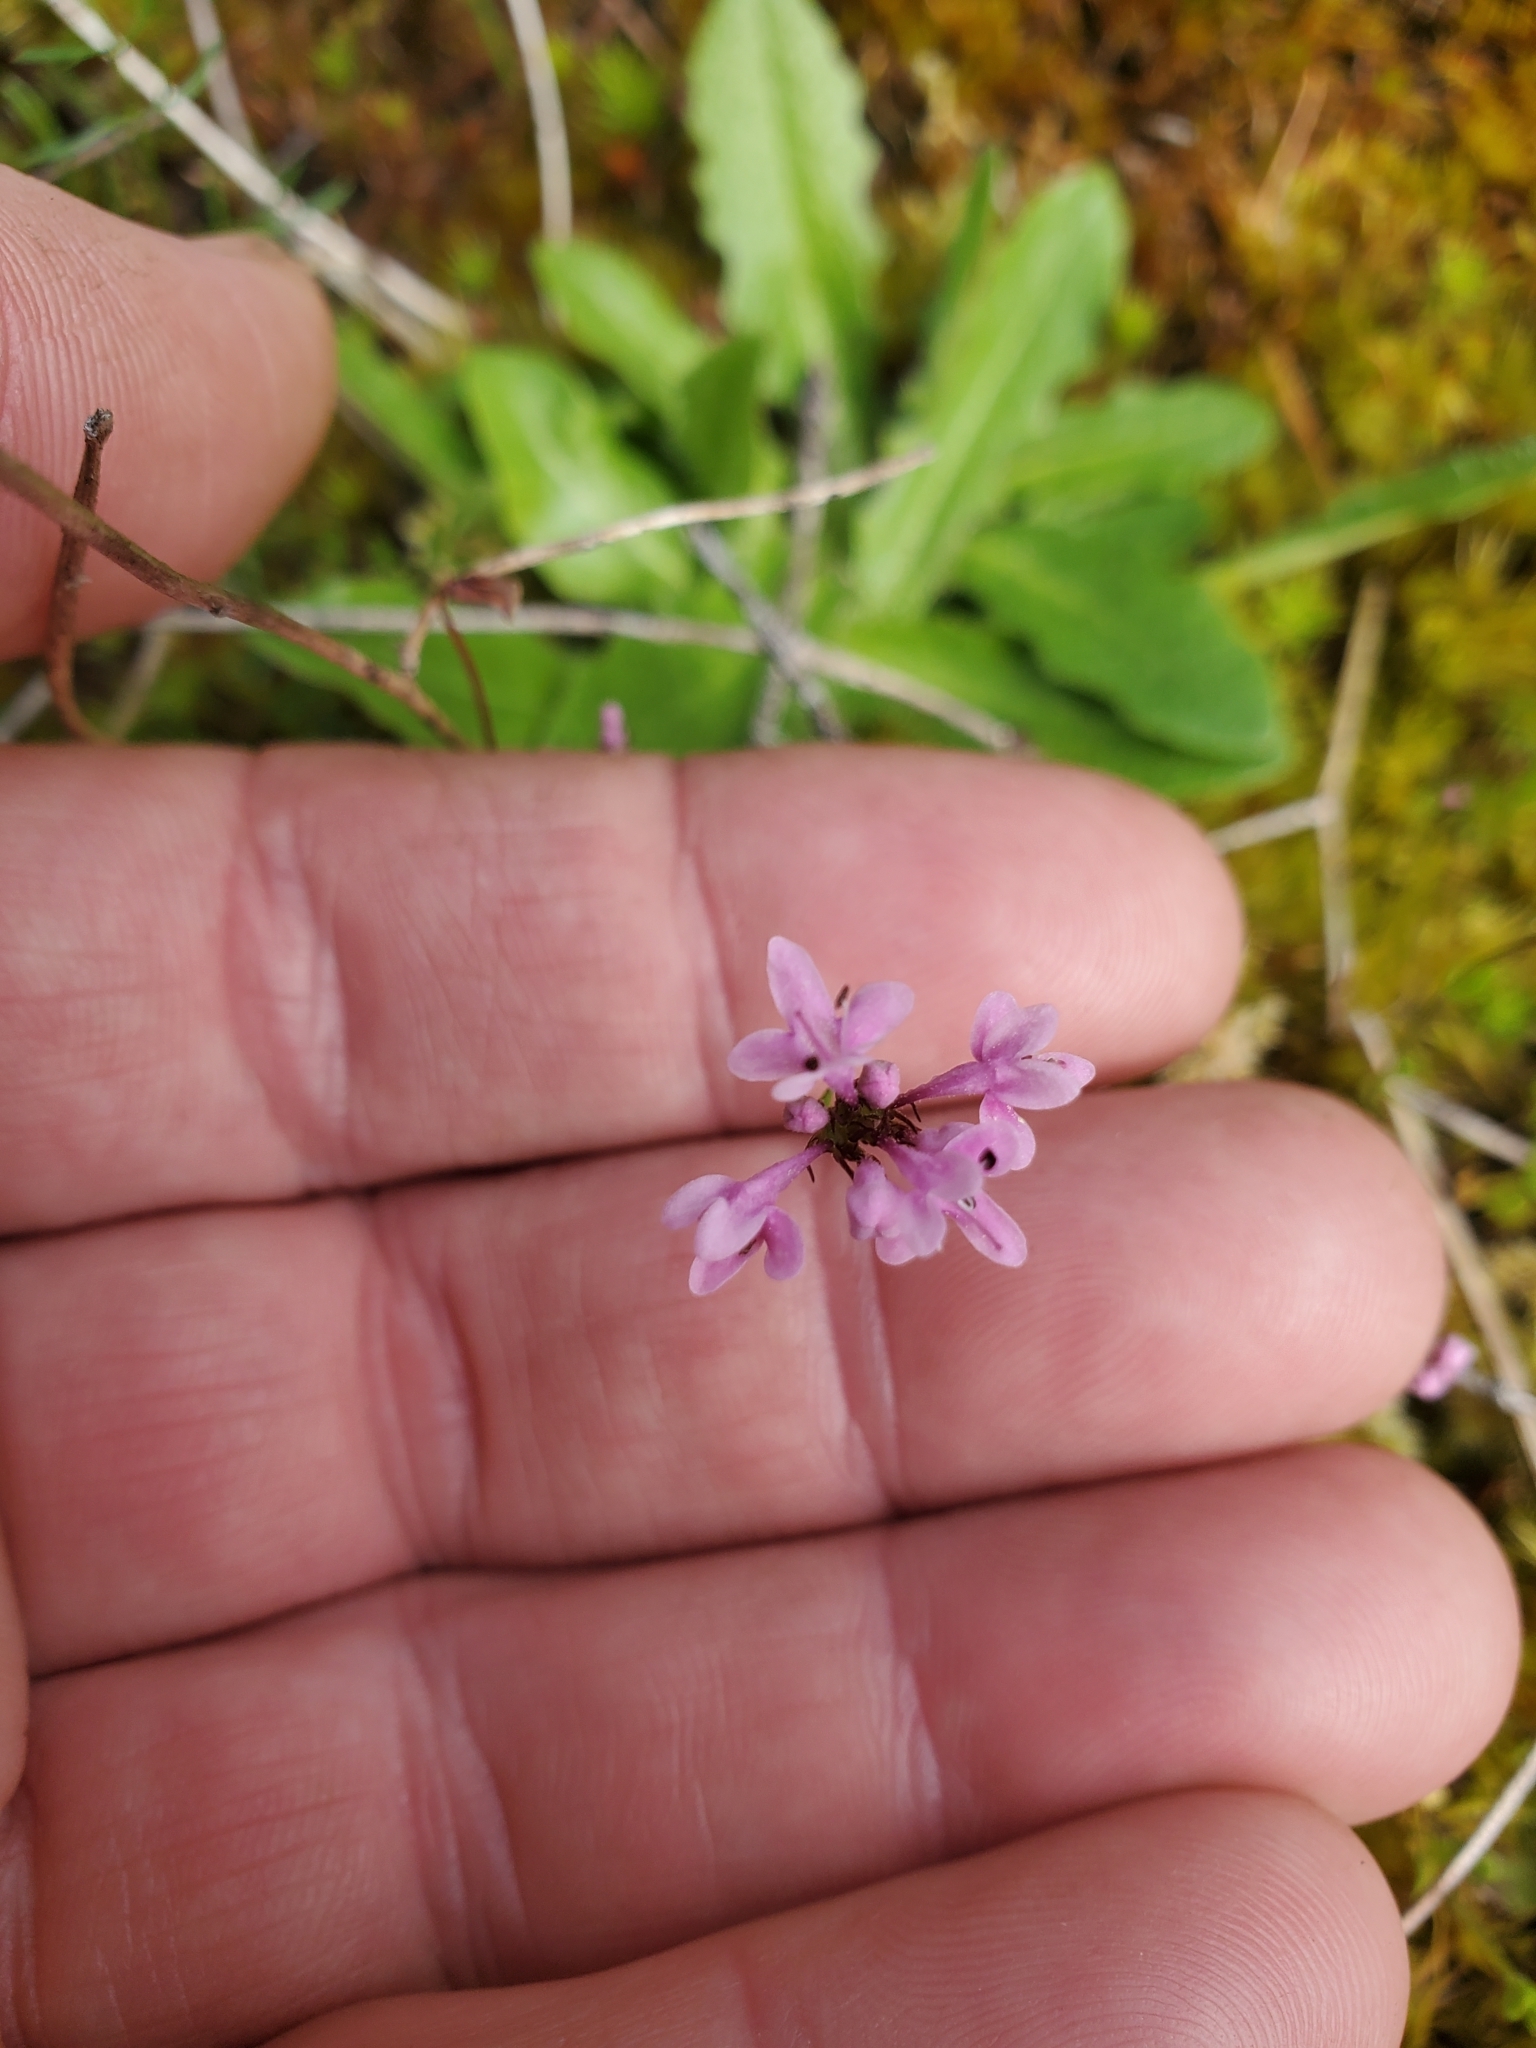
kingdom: Plantae
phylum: Tracheophyta
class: Magnoliopsida
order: Dipsacales
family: Caprifoliaceae
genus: Plectritis
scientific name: Plectritis congesta
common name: Pink plectritis
